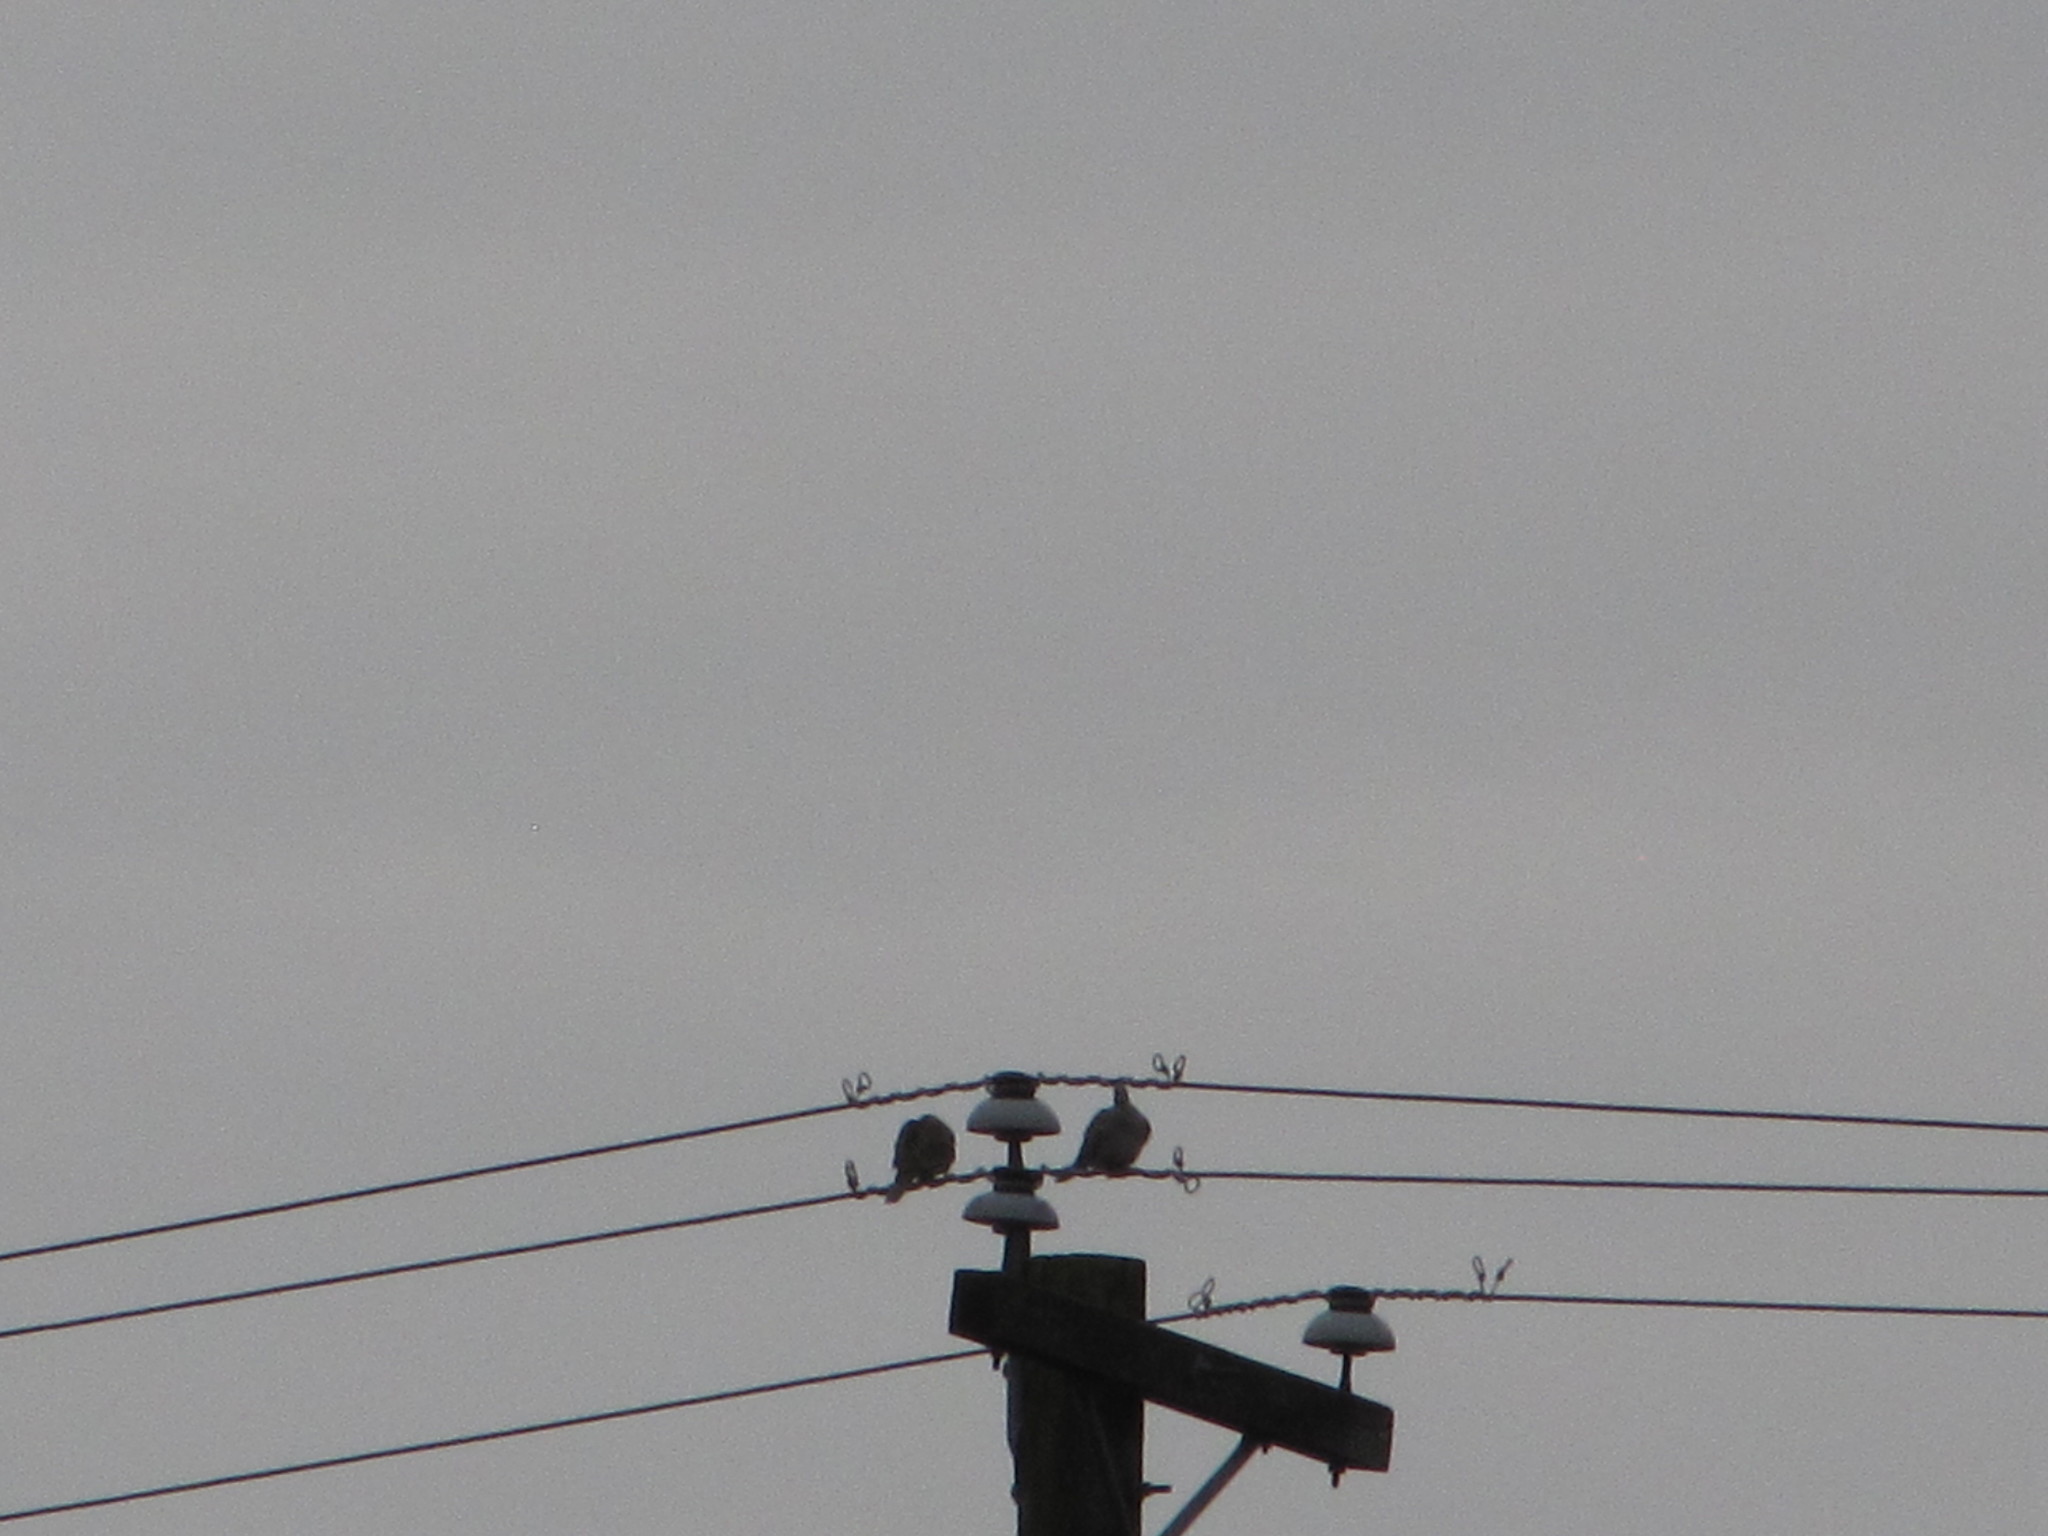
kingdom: Animalia
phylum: Chordata
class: Aves
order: Columbiformes
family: Columbidae
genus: Streptopelia
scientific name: Streptopelia decaocto
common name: Eurasian collared dove
